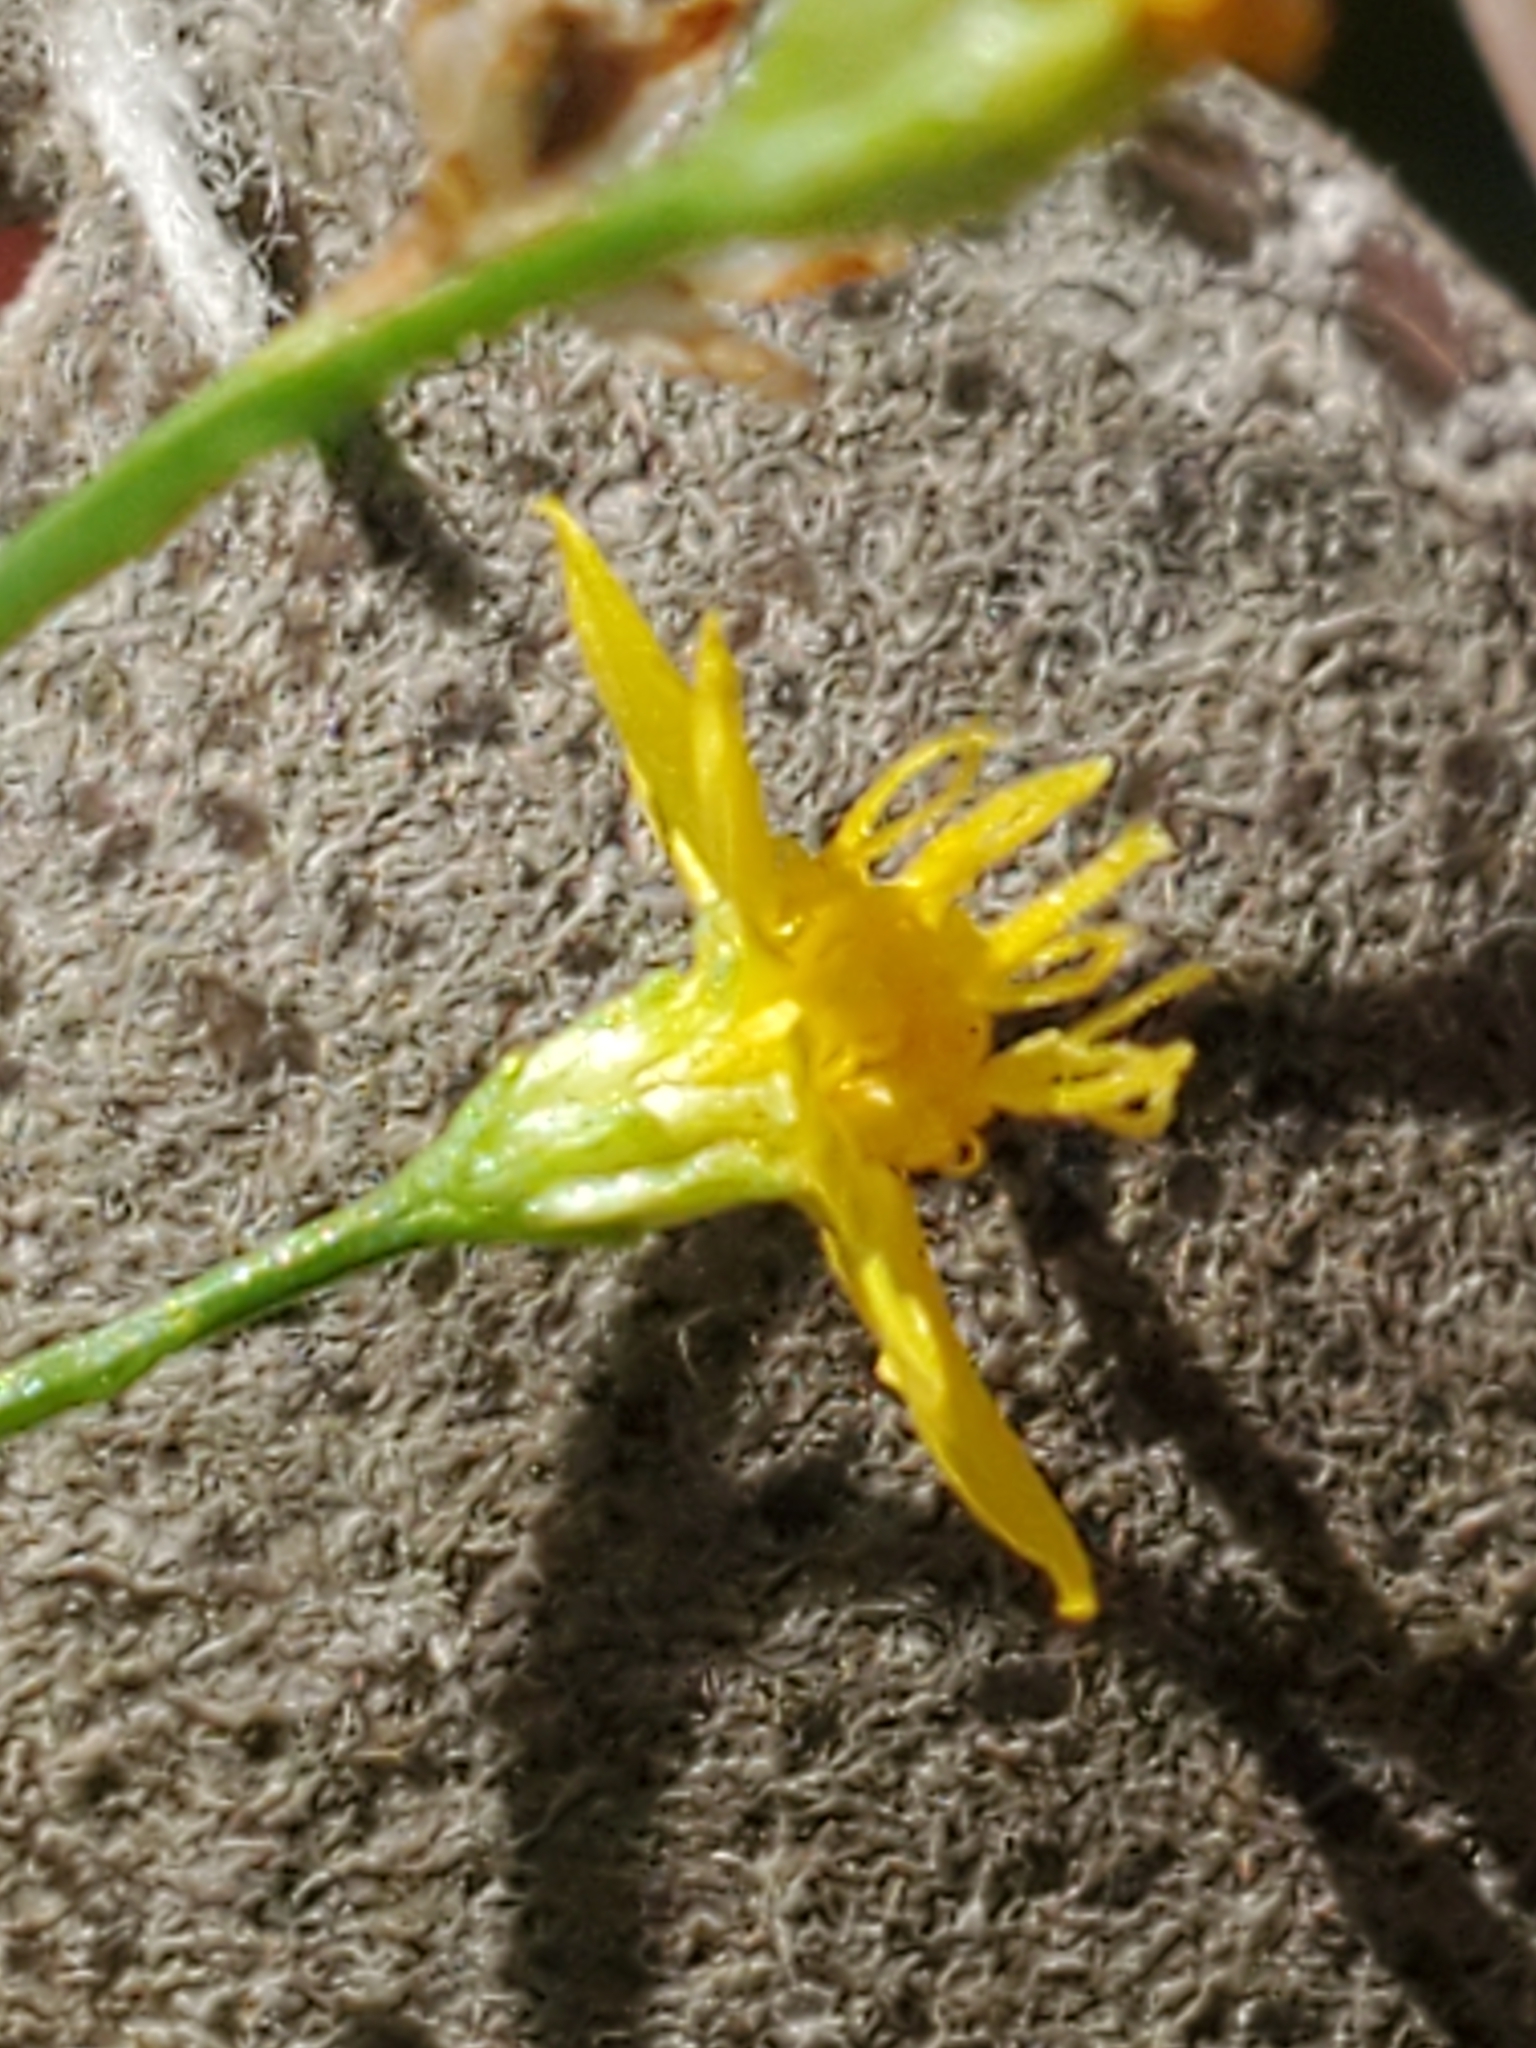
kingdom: Plantae
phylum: Tracheophyta
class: Magnoliopsida
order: Asterales
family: Asteraceae
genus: Gutierrezia
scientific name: Gutierrezia texana
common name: Texas snakeweed
